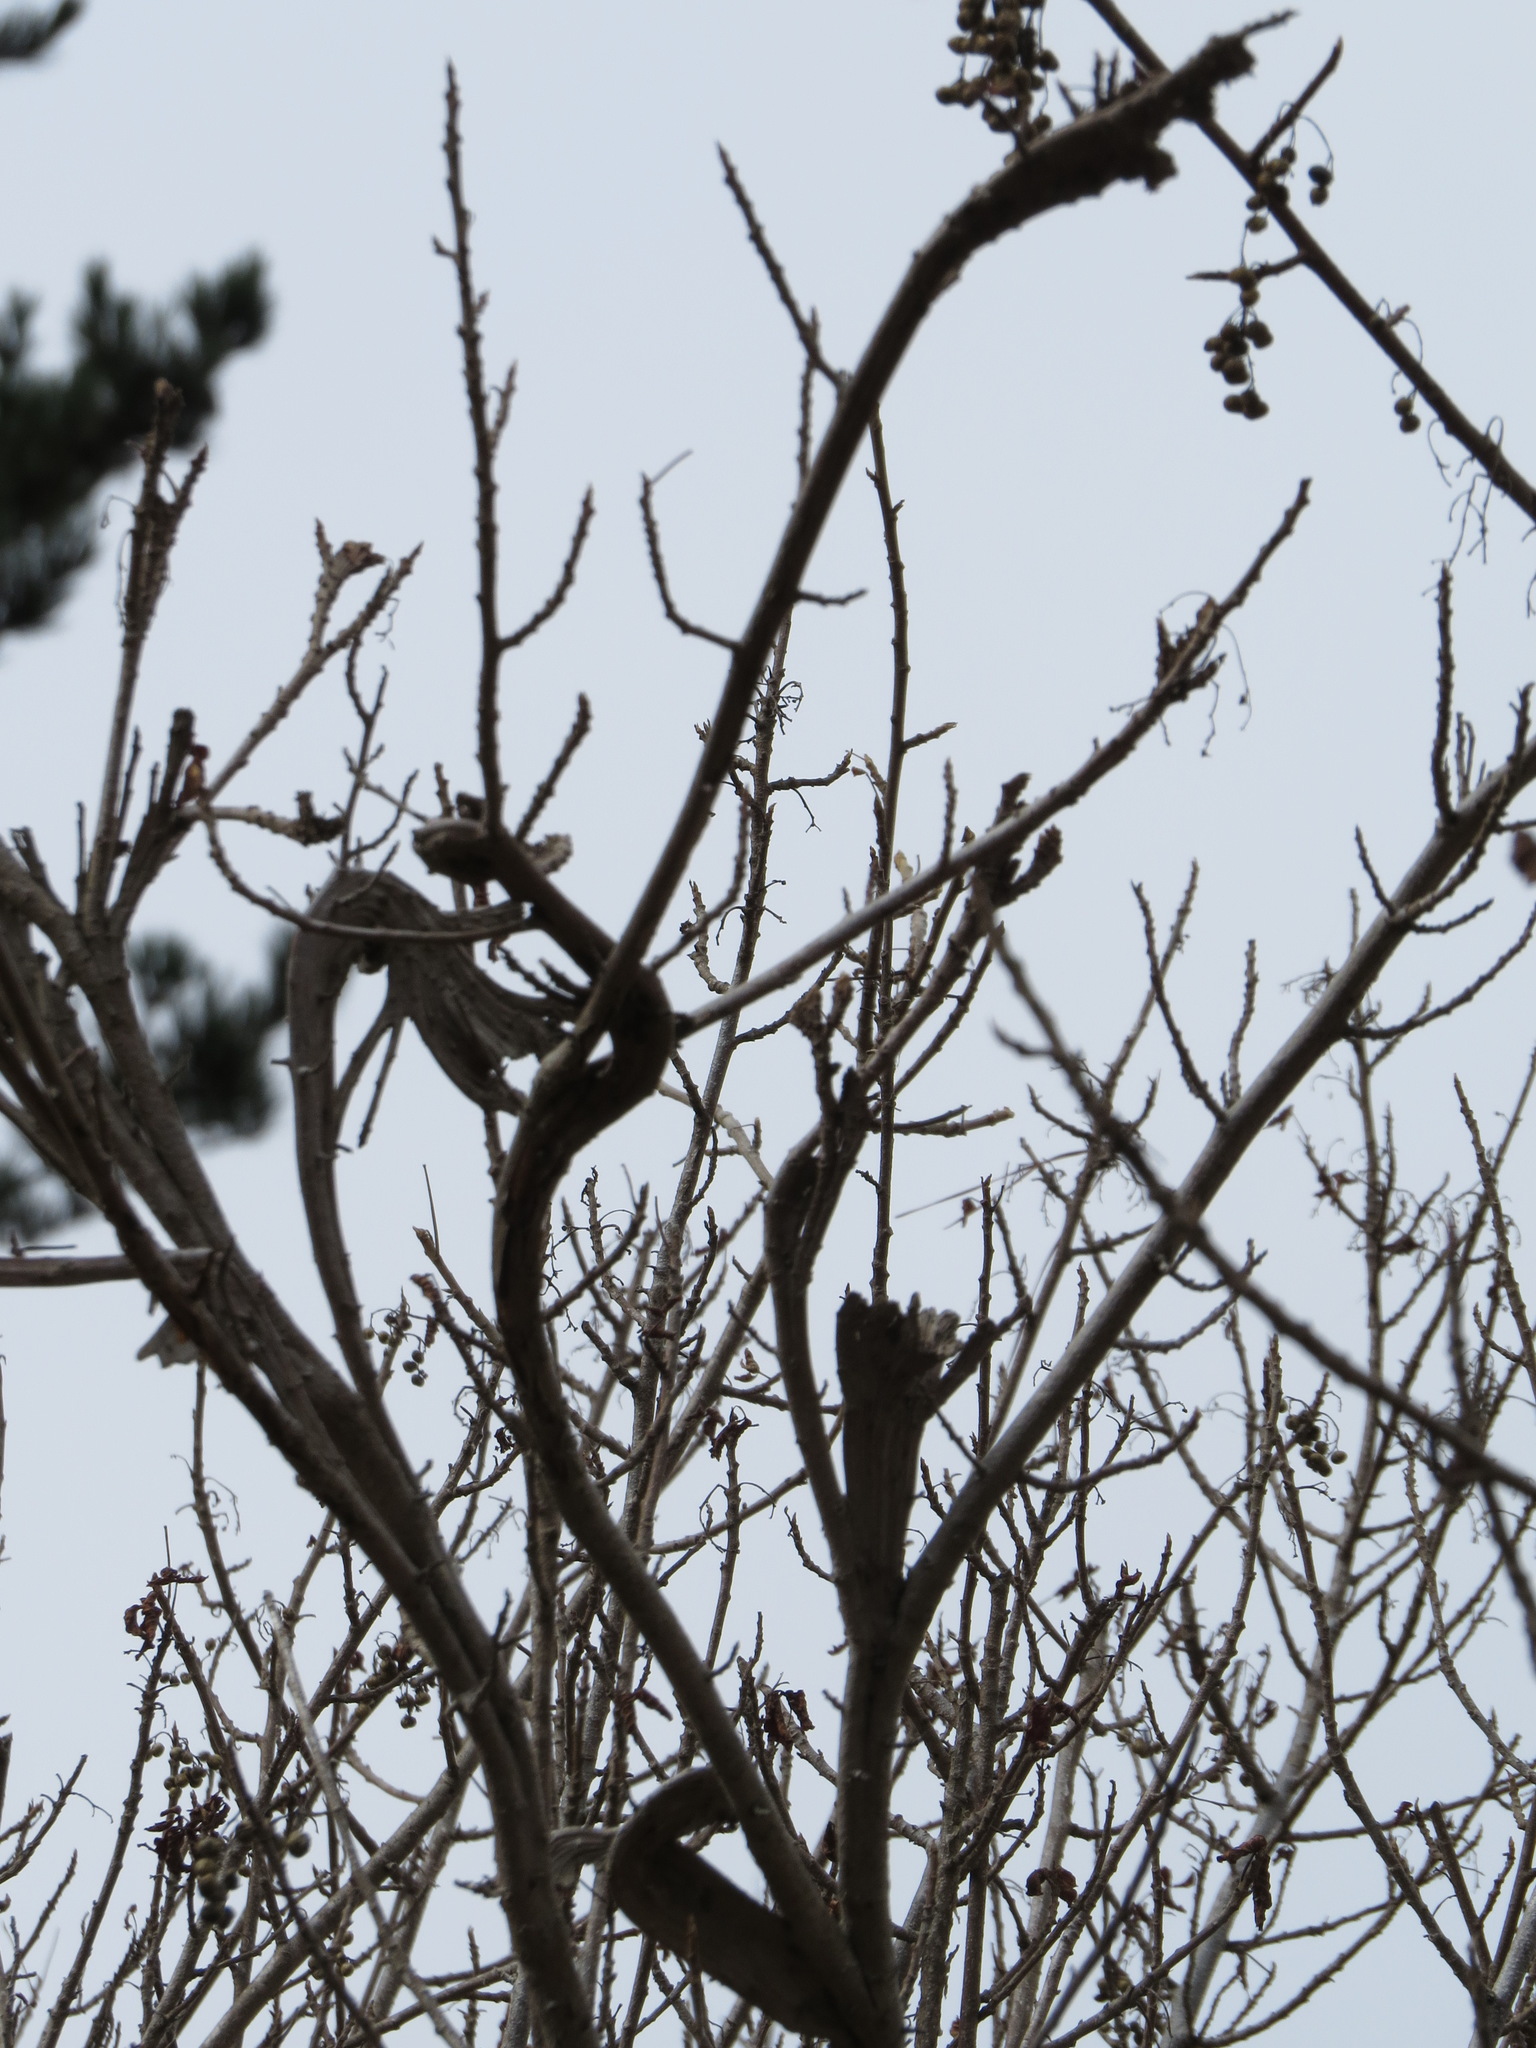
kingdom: Plantae
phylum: Tracheophyta
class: Magnoliopsida
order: Sapindales
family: Anacardiaceae
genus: Toxicodendron
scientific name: Toxicodendron diversilobum
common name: Pacific poison-oak
